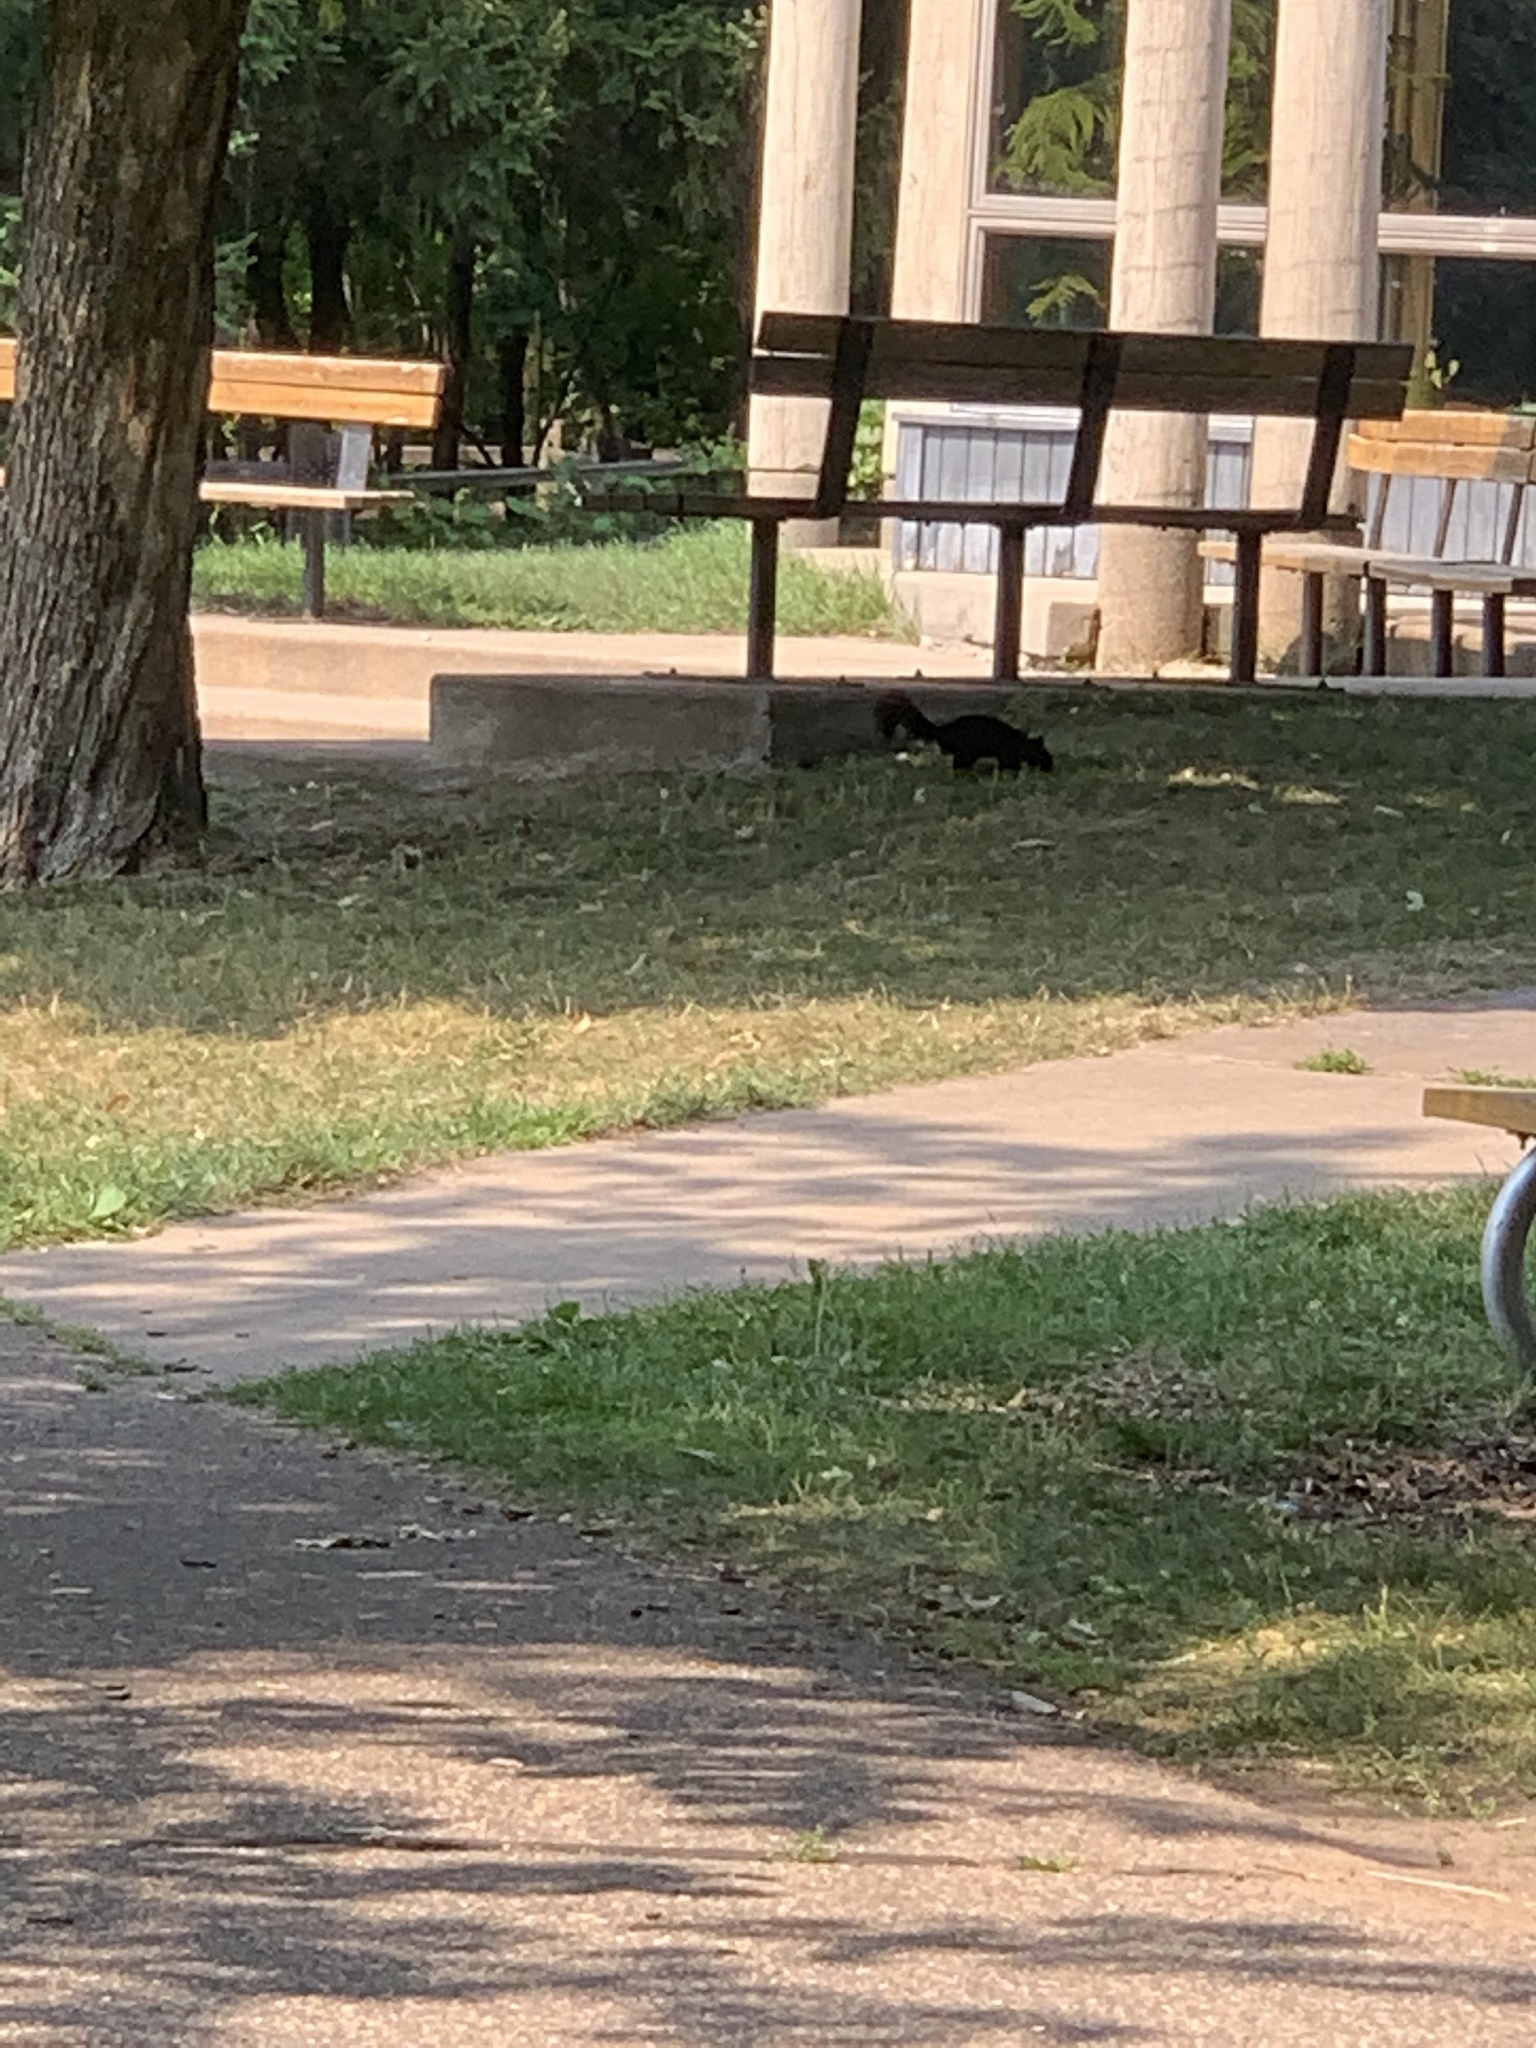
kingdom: Animalia
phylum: Chordata
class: Mammalia
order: Rodentia
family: Sciuridae
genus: Sciurus
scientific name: Sciurus carolinensis
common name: Eastern gray squirrel
